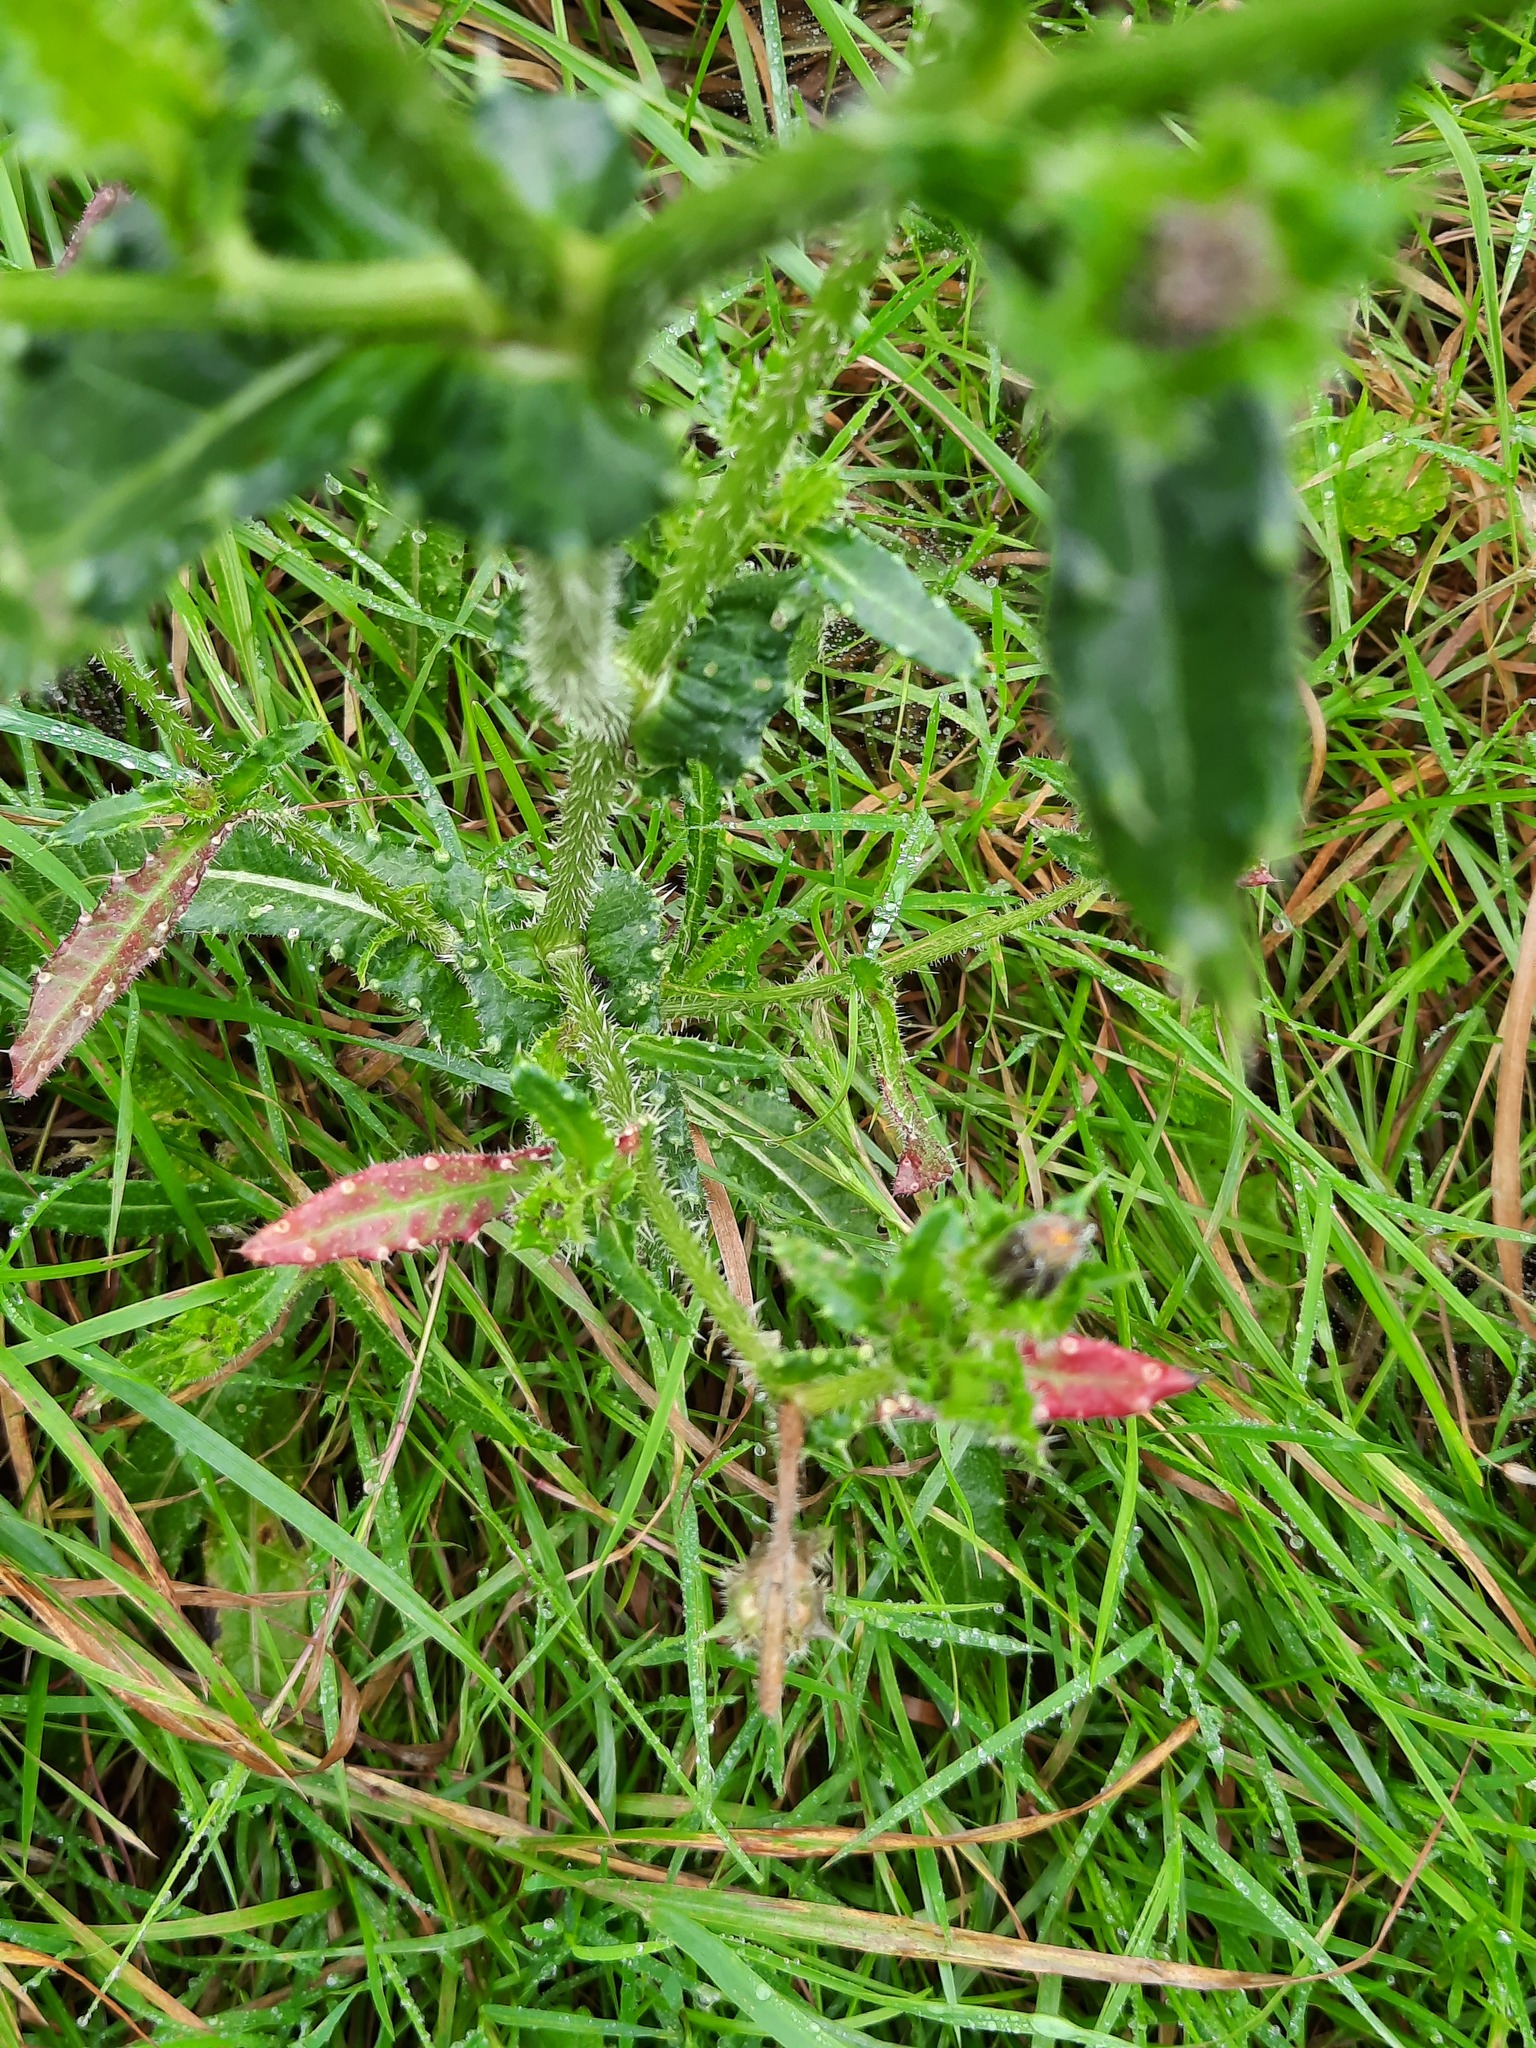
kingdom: Plantae
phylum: Tracheophyta
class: Magnoliopsida
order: Asterales
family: Asteraceae
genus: Helminthotheca
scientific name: Helminthotheca echioides
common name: Ox-tongue
